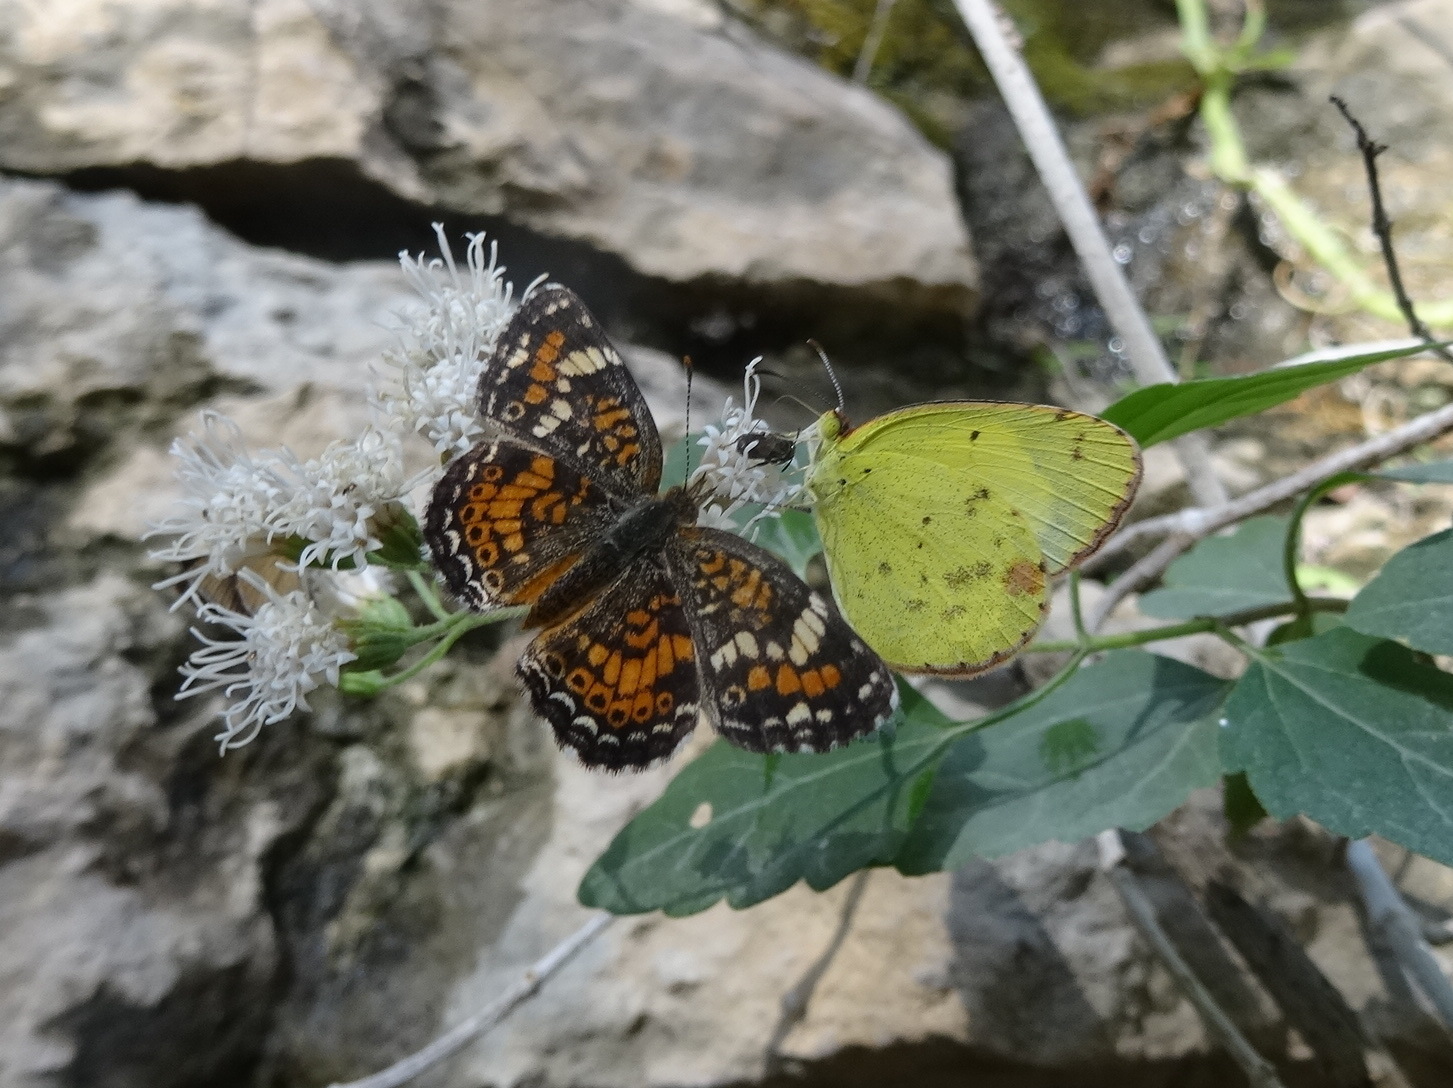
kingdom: Animalia
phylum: Arthropoda
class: Insecta
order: Lepidoptera
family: Nymphalidae
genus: Phyciodes
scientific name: Phyciodes phaon
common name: Phaon crescent
